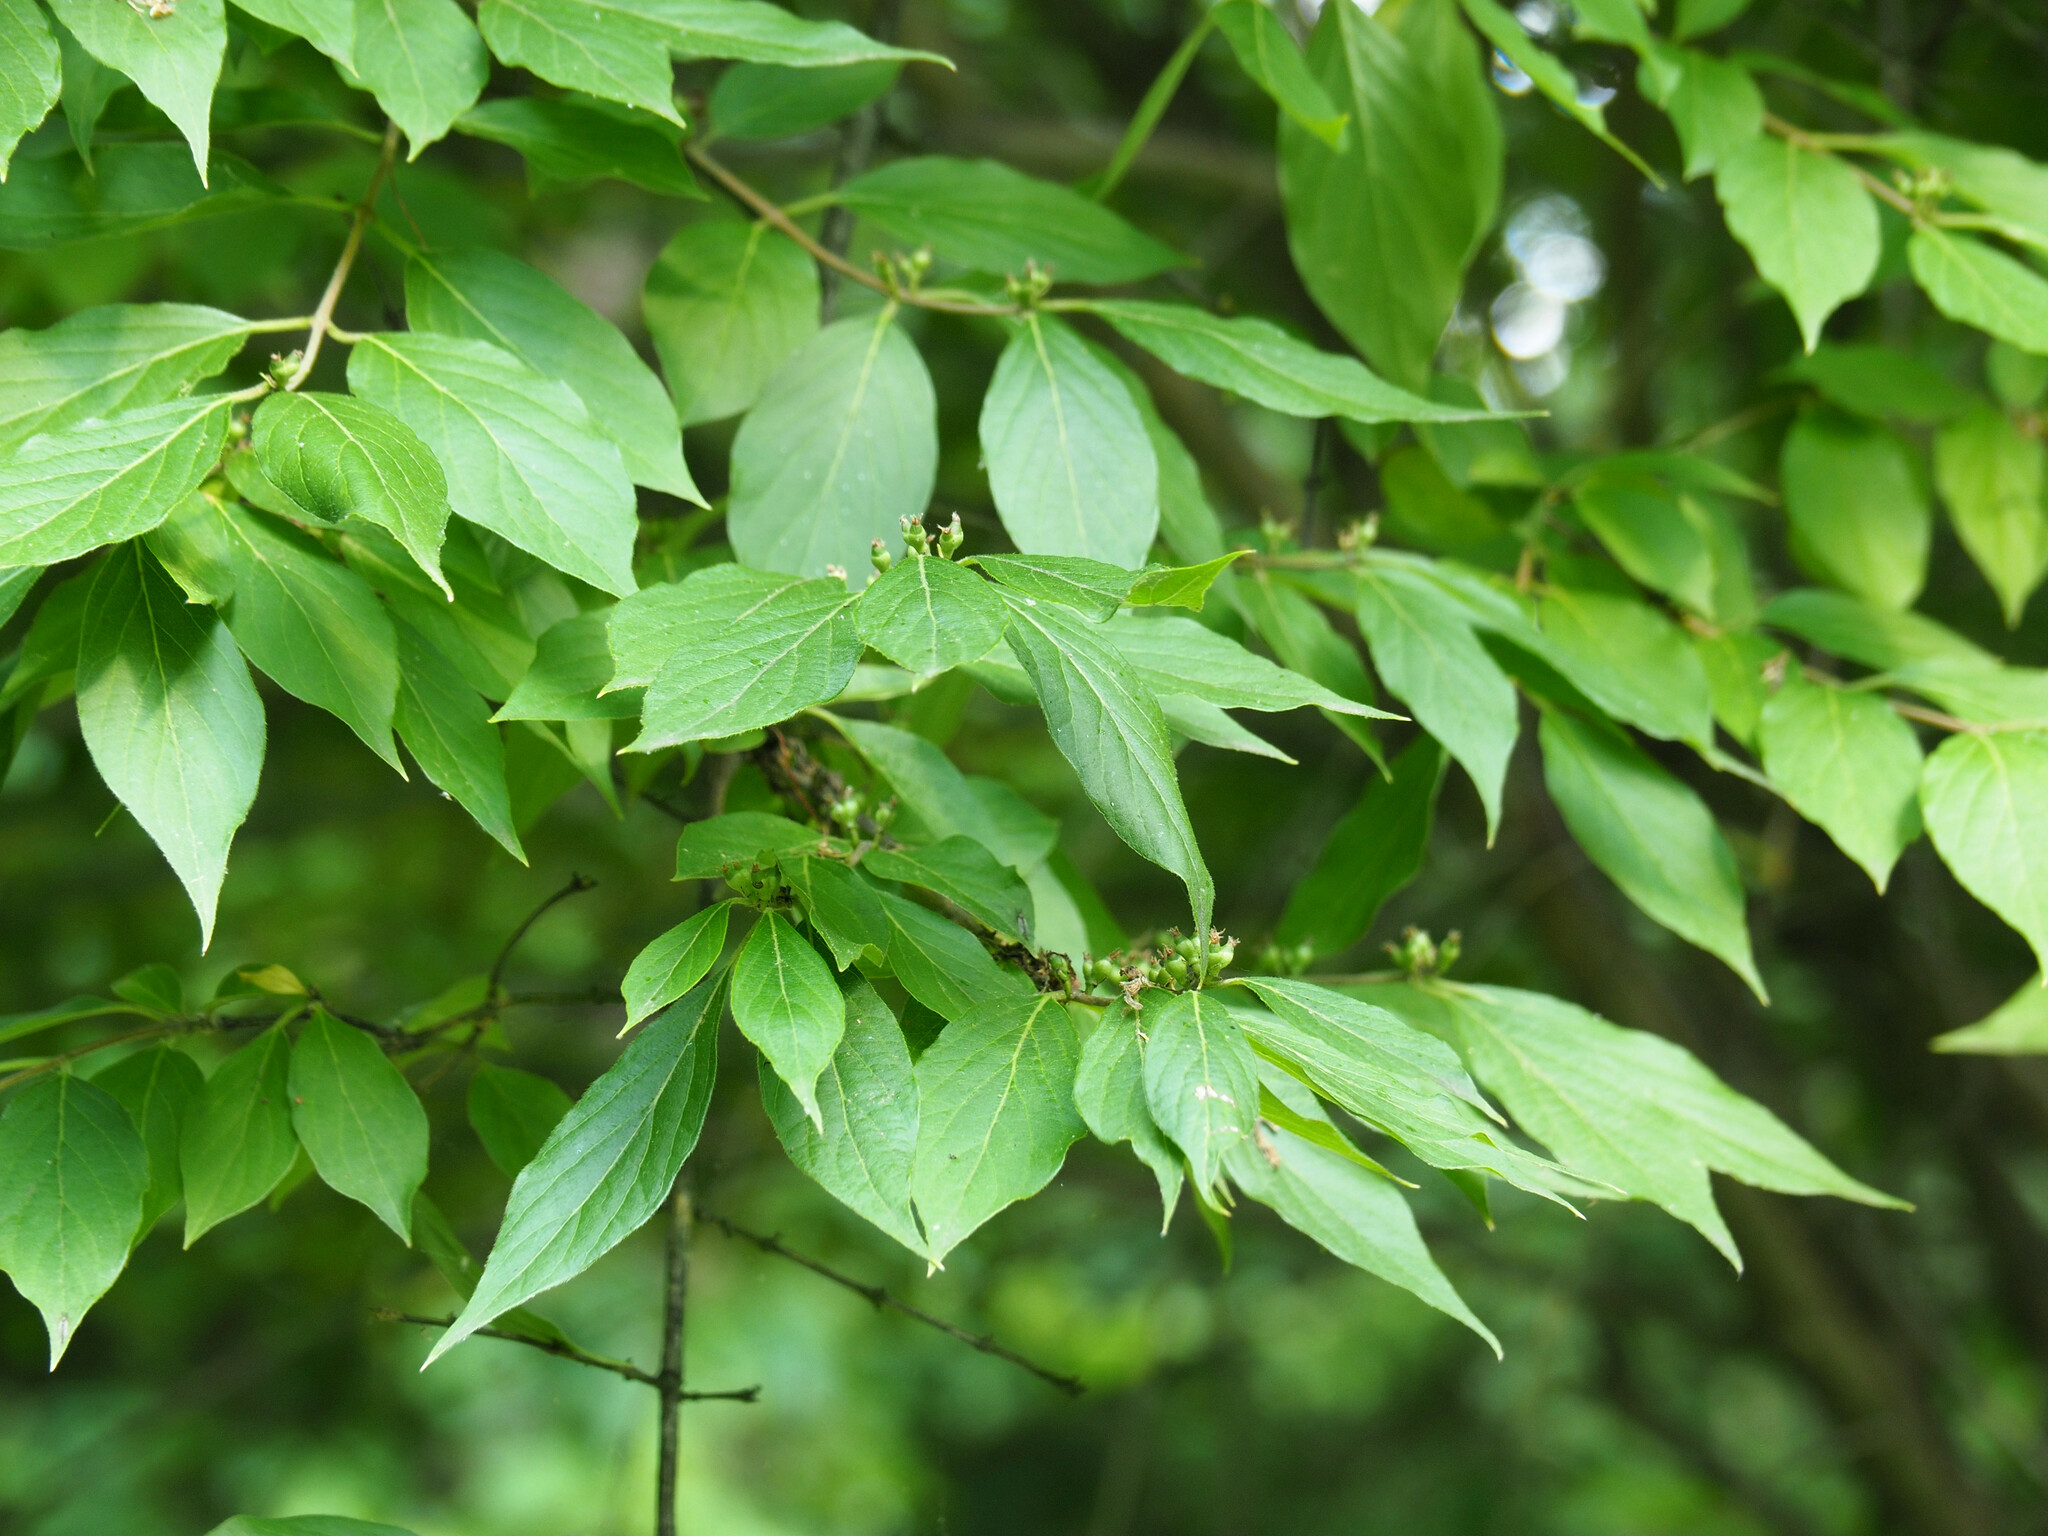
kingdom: Plantae
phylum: Tracheophyta
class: Magnoliopsida
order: Dipsacales
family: Caprifoliaceae
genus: Lonicera
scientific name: Lonicera maackii
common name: Amur honeysuckle
